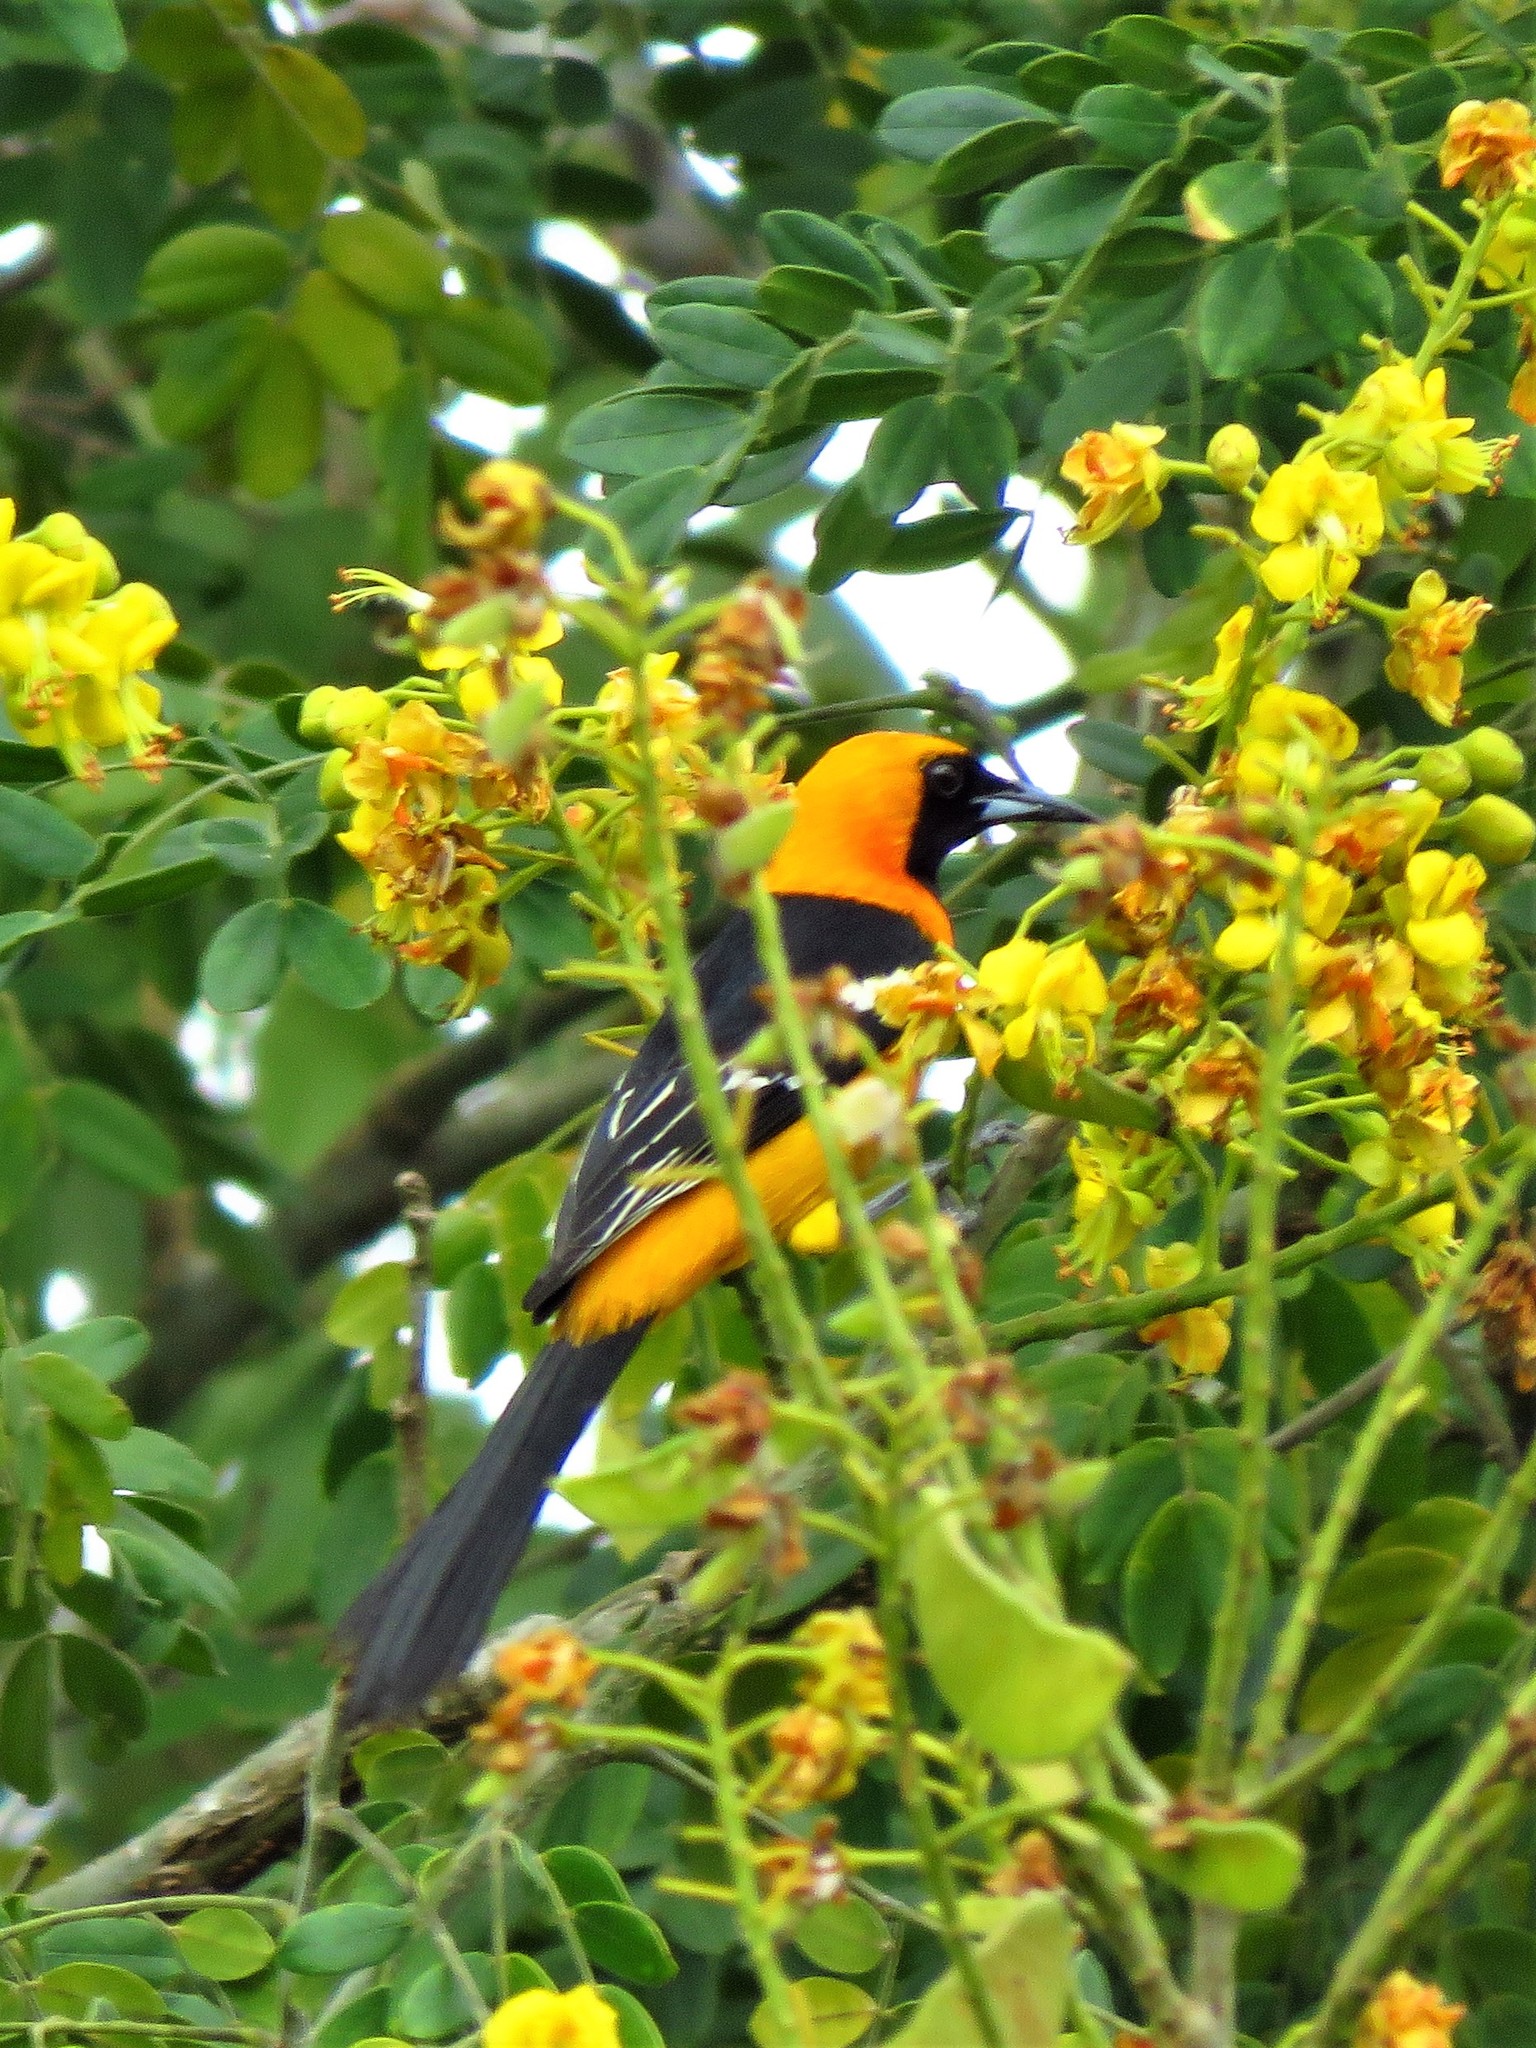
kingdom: Animalia
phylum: Chordata
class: Aves
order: Passeriformes
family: Icteridae
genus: Icterus
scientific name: Icterus cucullatus
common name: Hooded oriole
